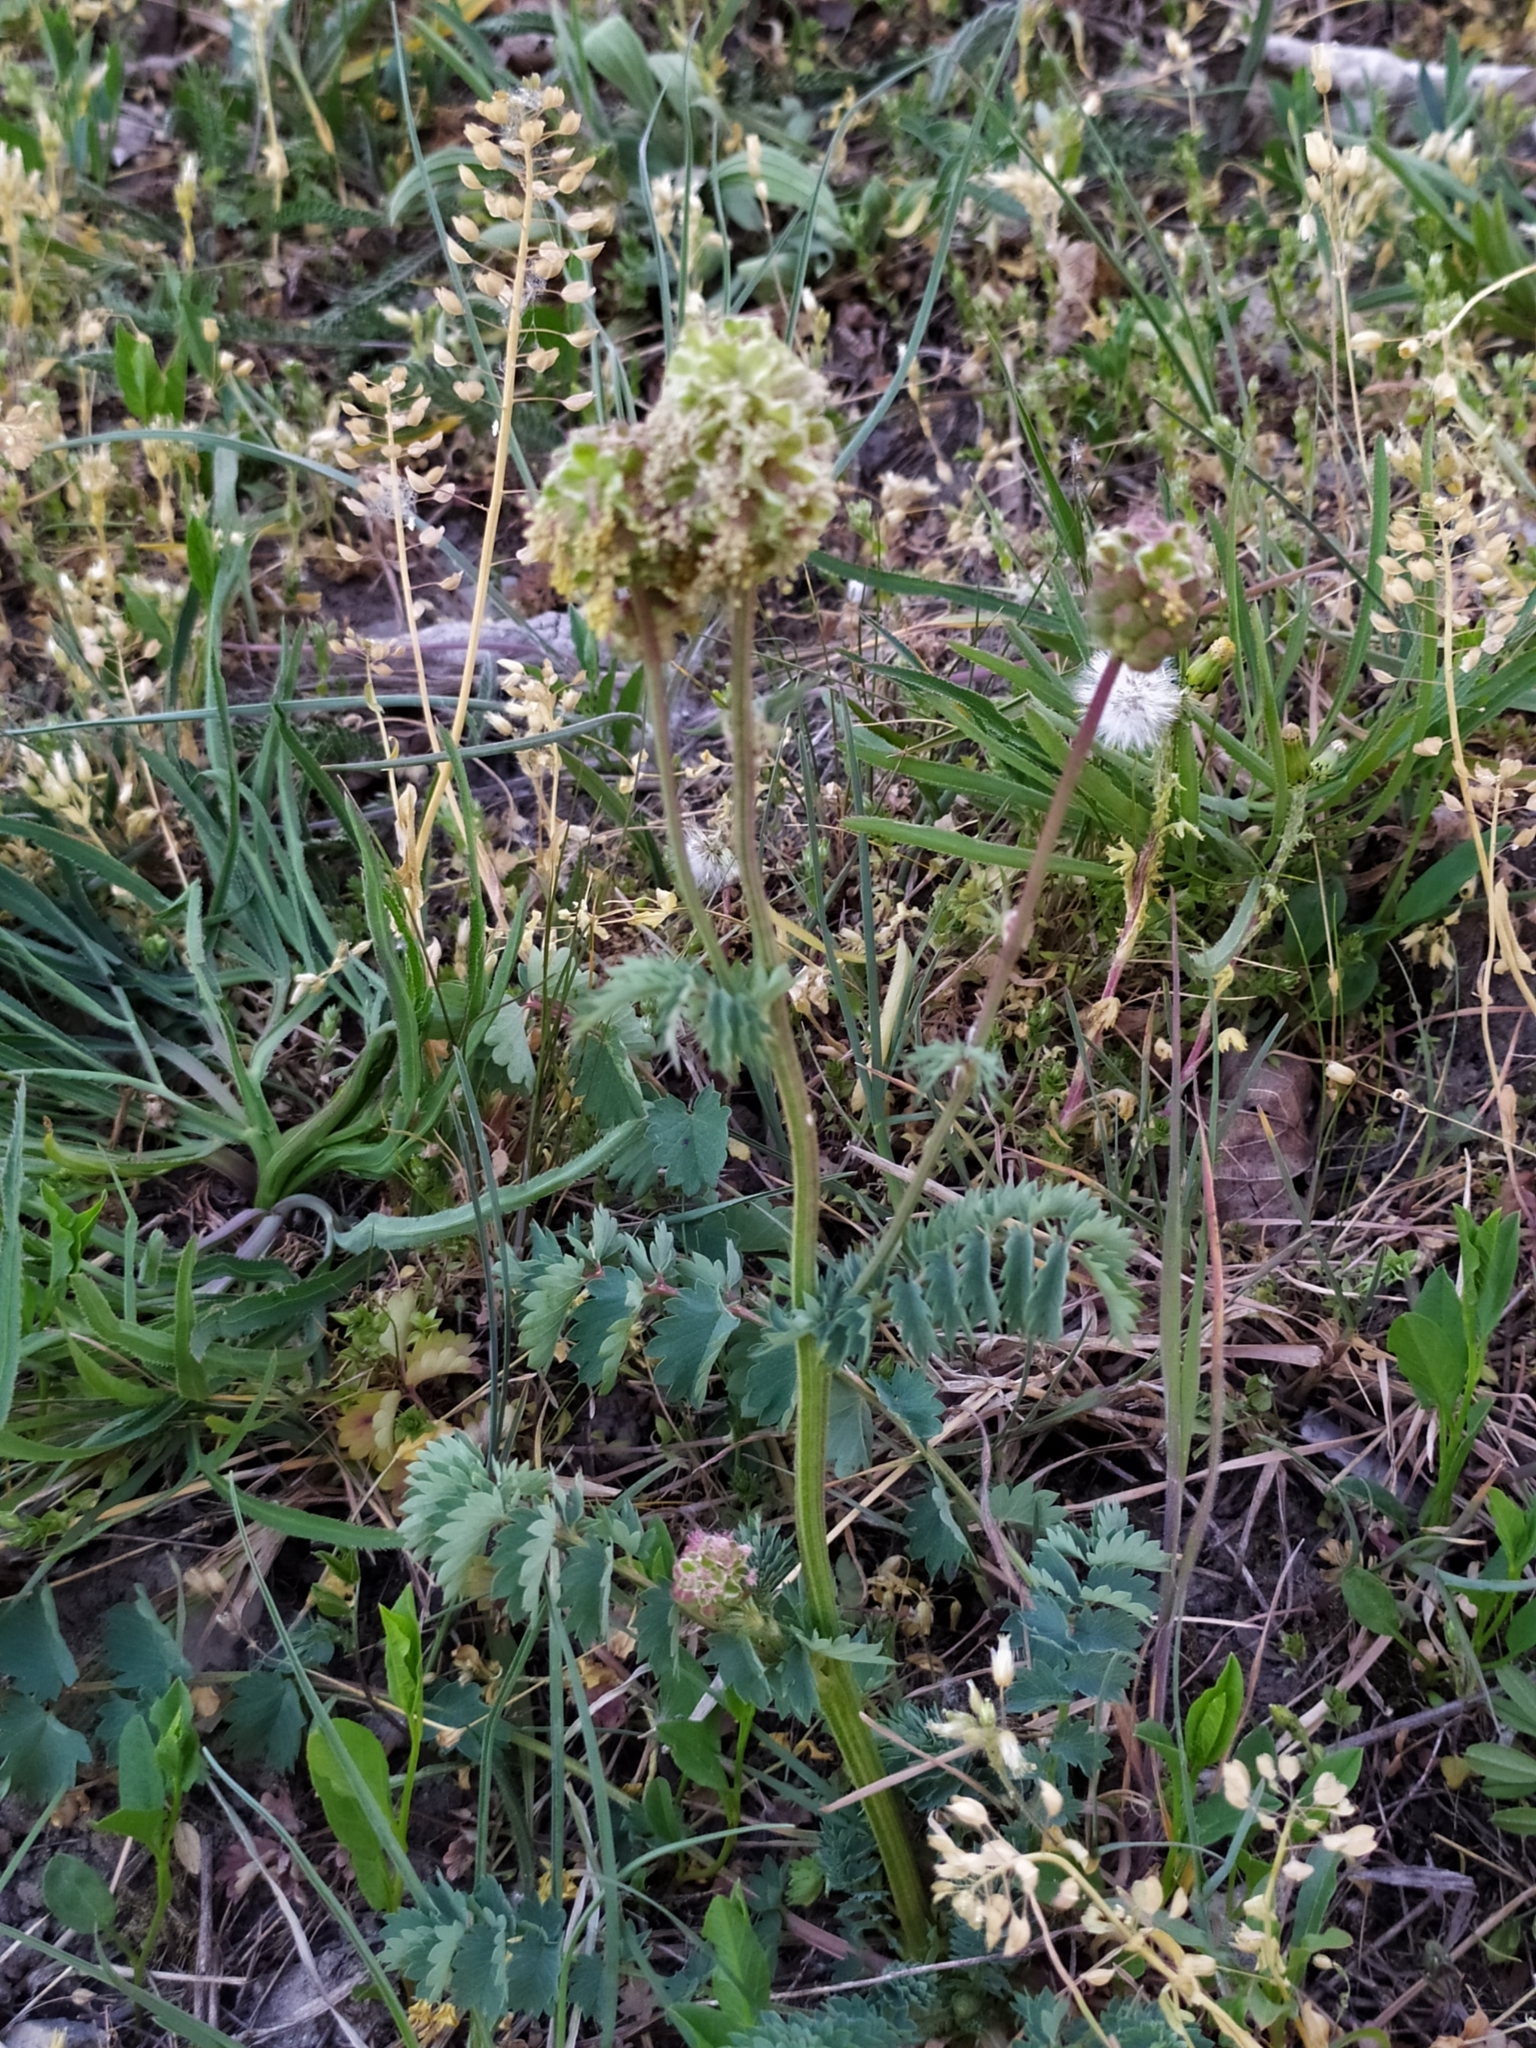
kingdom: Plantae
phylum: Tracheophyta
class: Magnoliopsida
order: Rosales
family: Rosaceae
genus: Poterium
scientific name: Poterium sanguisorba
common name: Salad burnet
